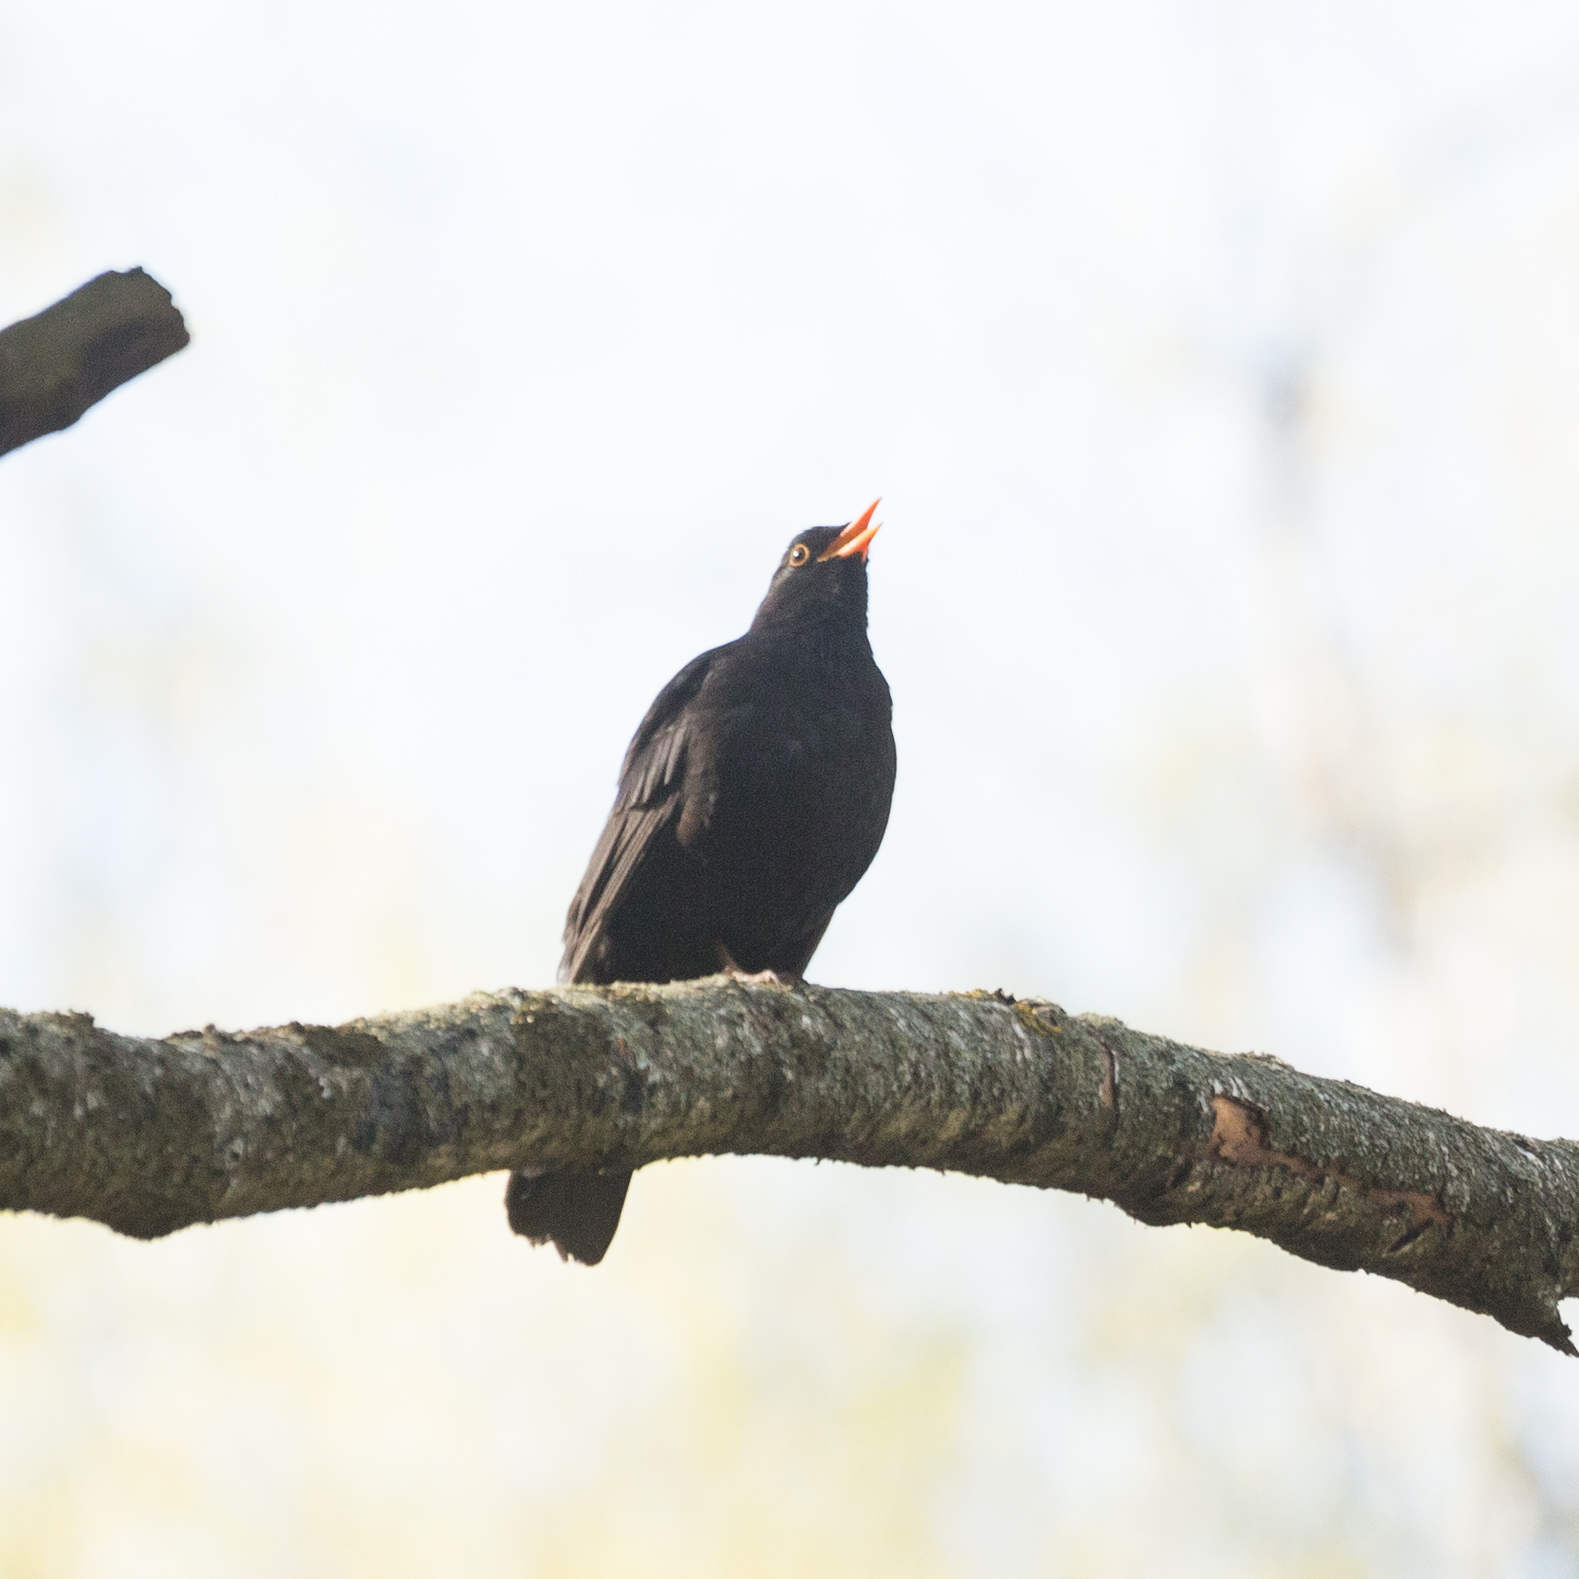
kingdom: Animalia
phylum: Chordata
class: Aves
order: Passeriformes
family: Turdidae
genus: Turdus
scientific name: Turdus merula
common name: Common blackbird
